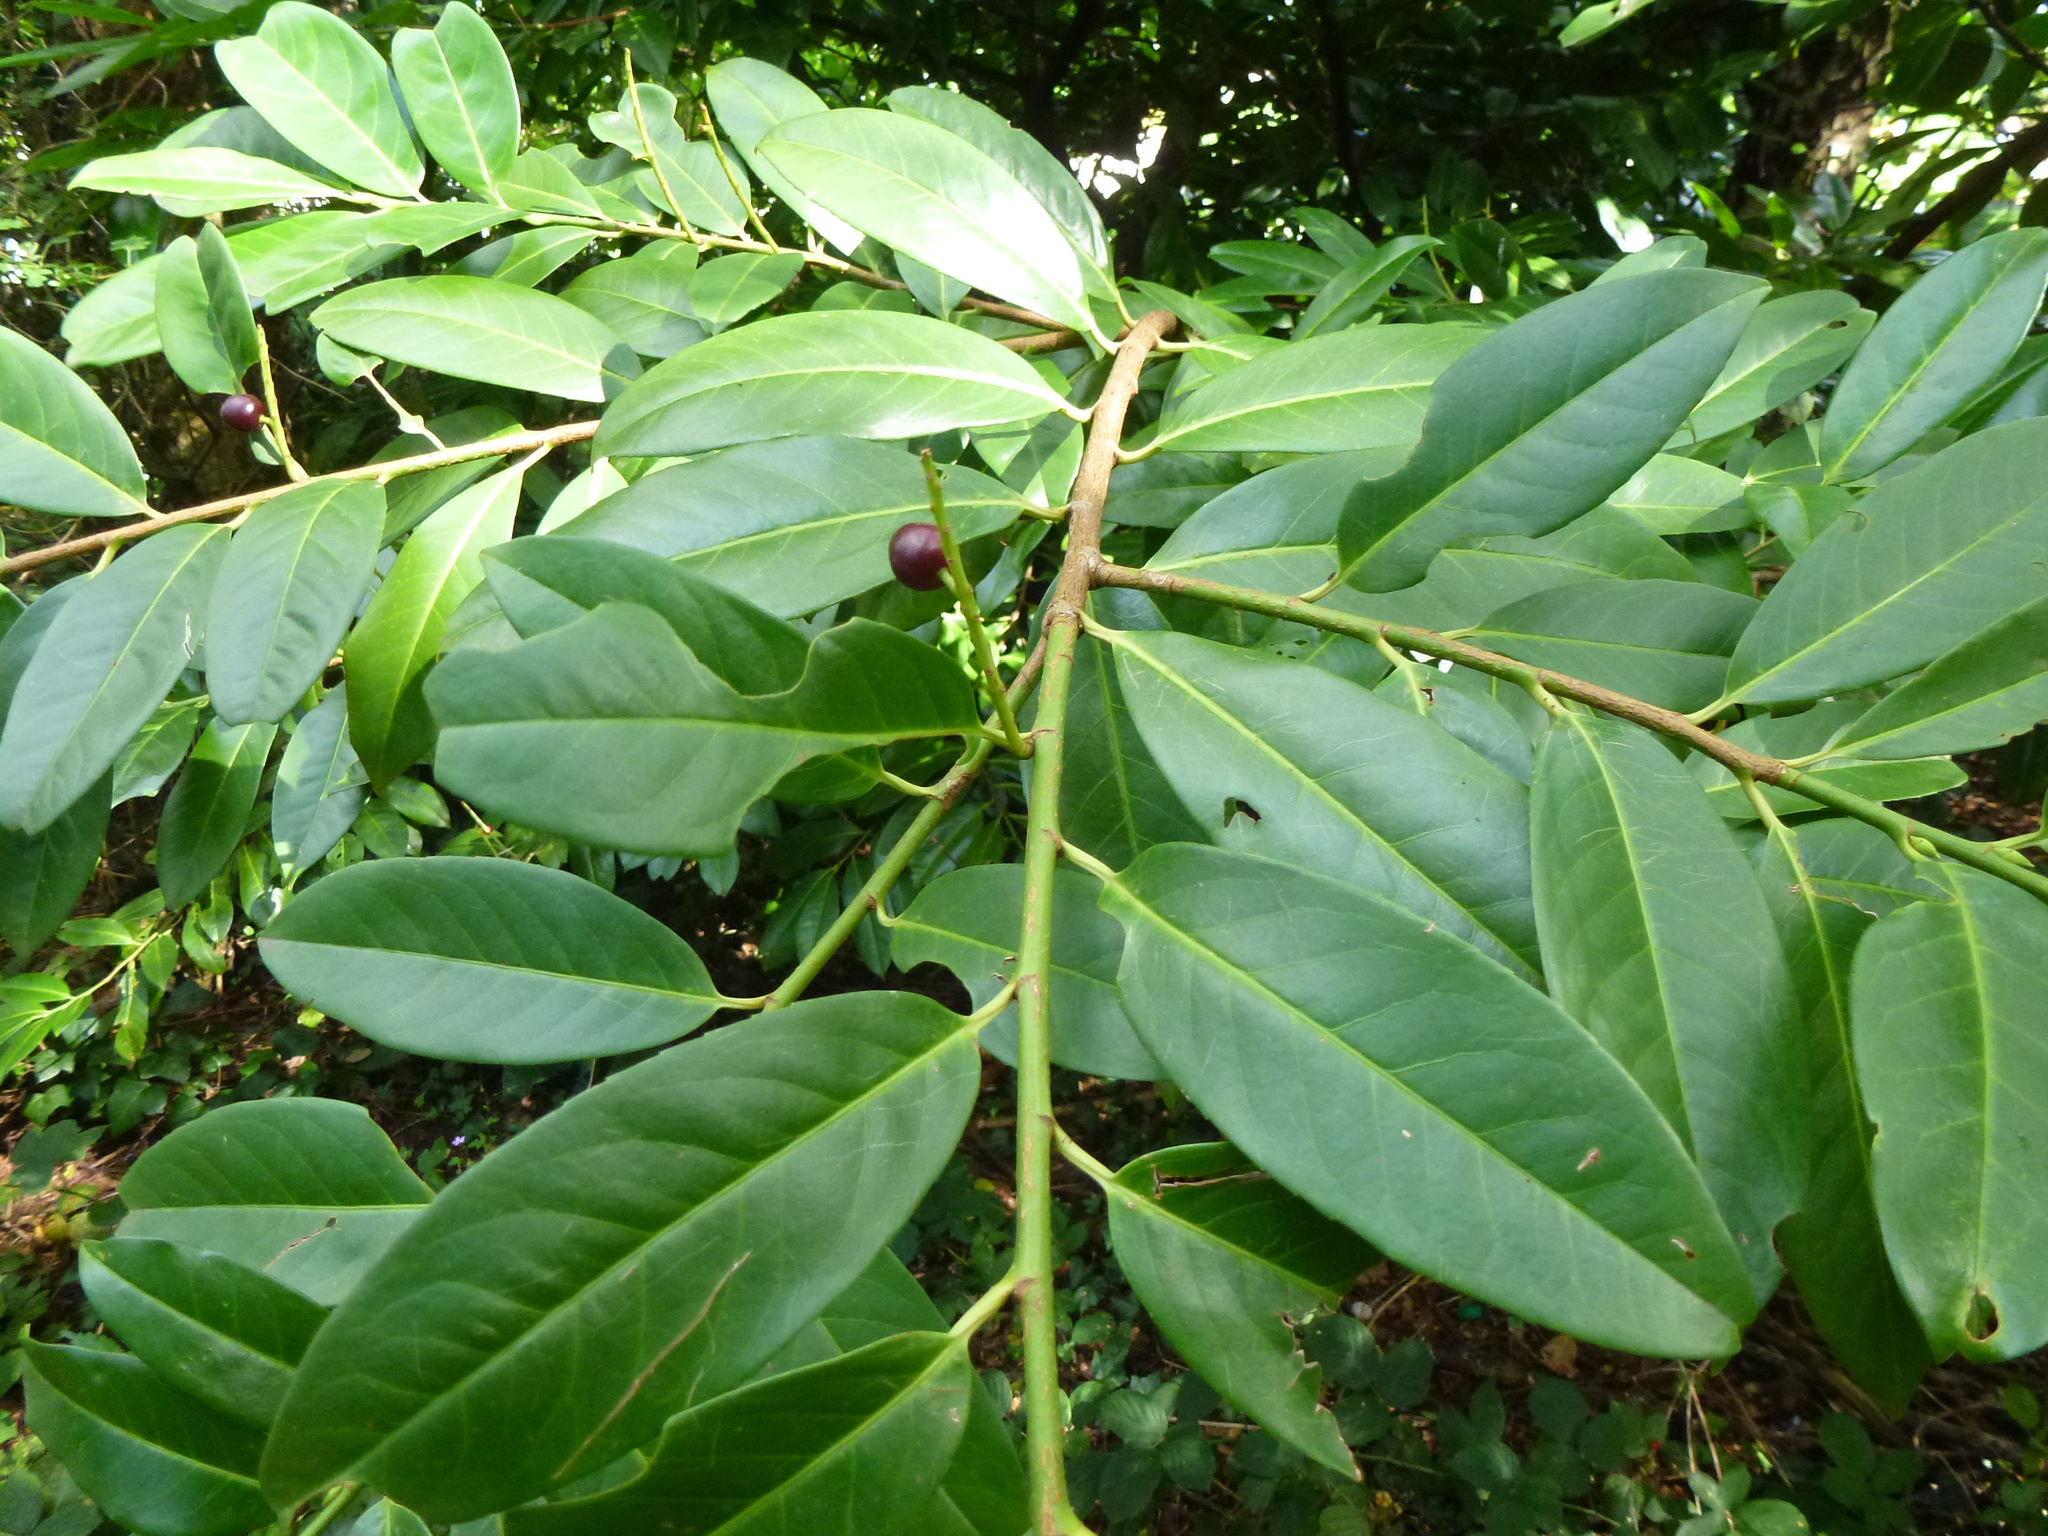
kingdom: Plantae
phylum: Tracheophyta
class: Magnoliopsida
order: Rosales
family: Rosaceae
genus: Prunus
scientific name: Prunus laurocerasus
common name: Cherry laurel
